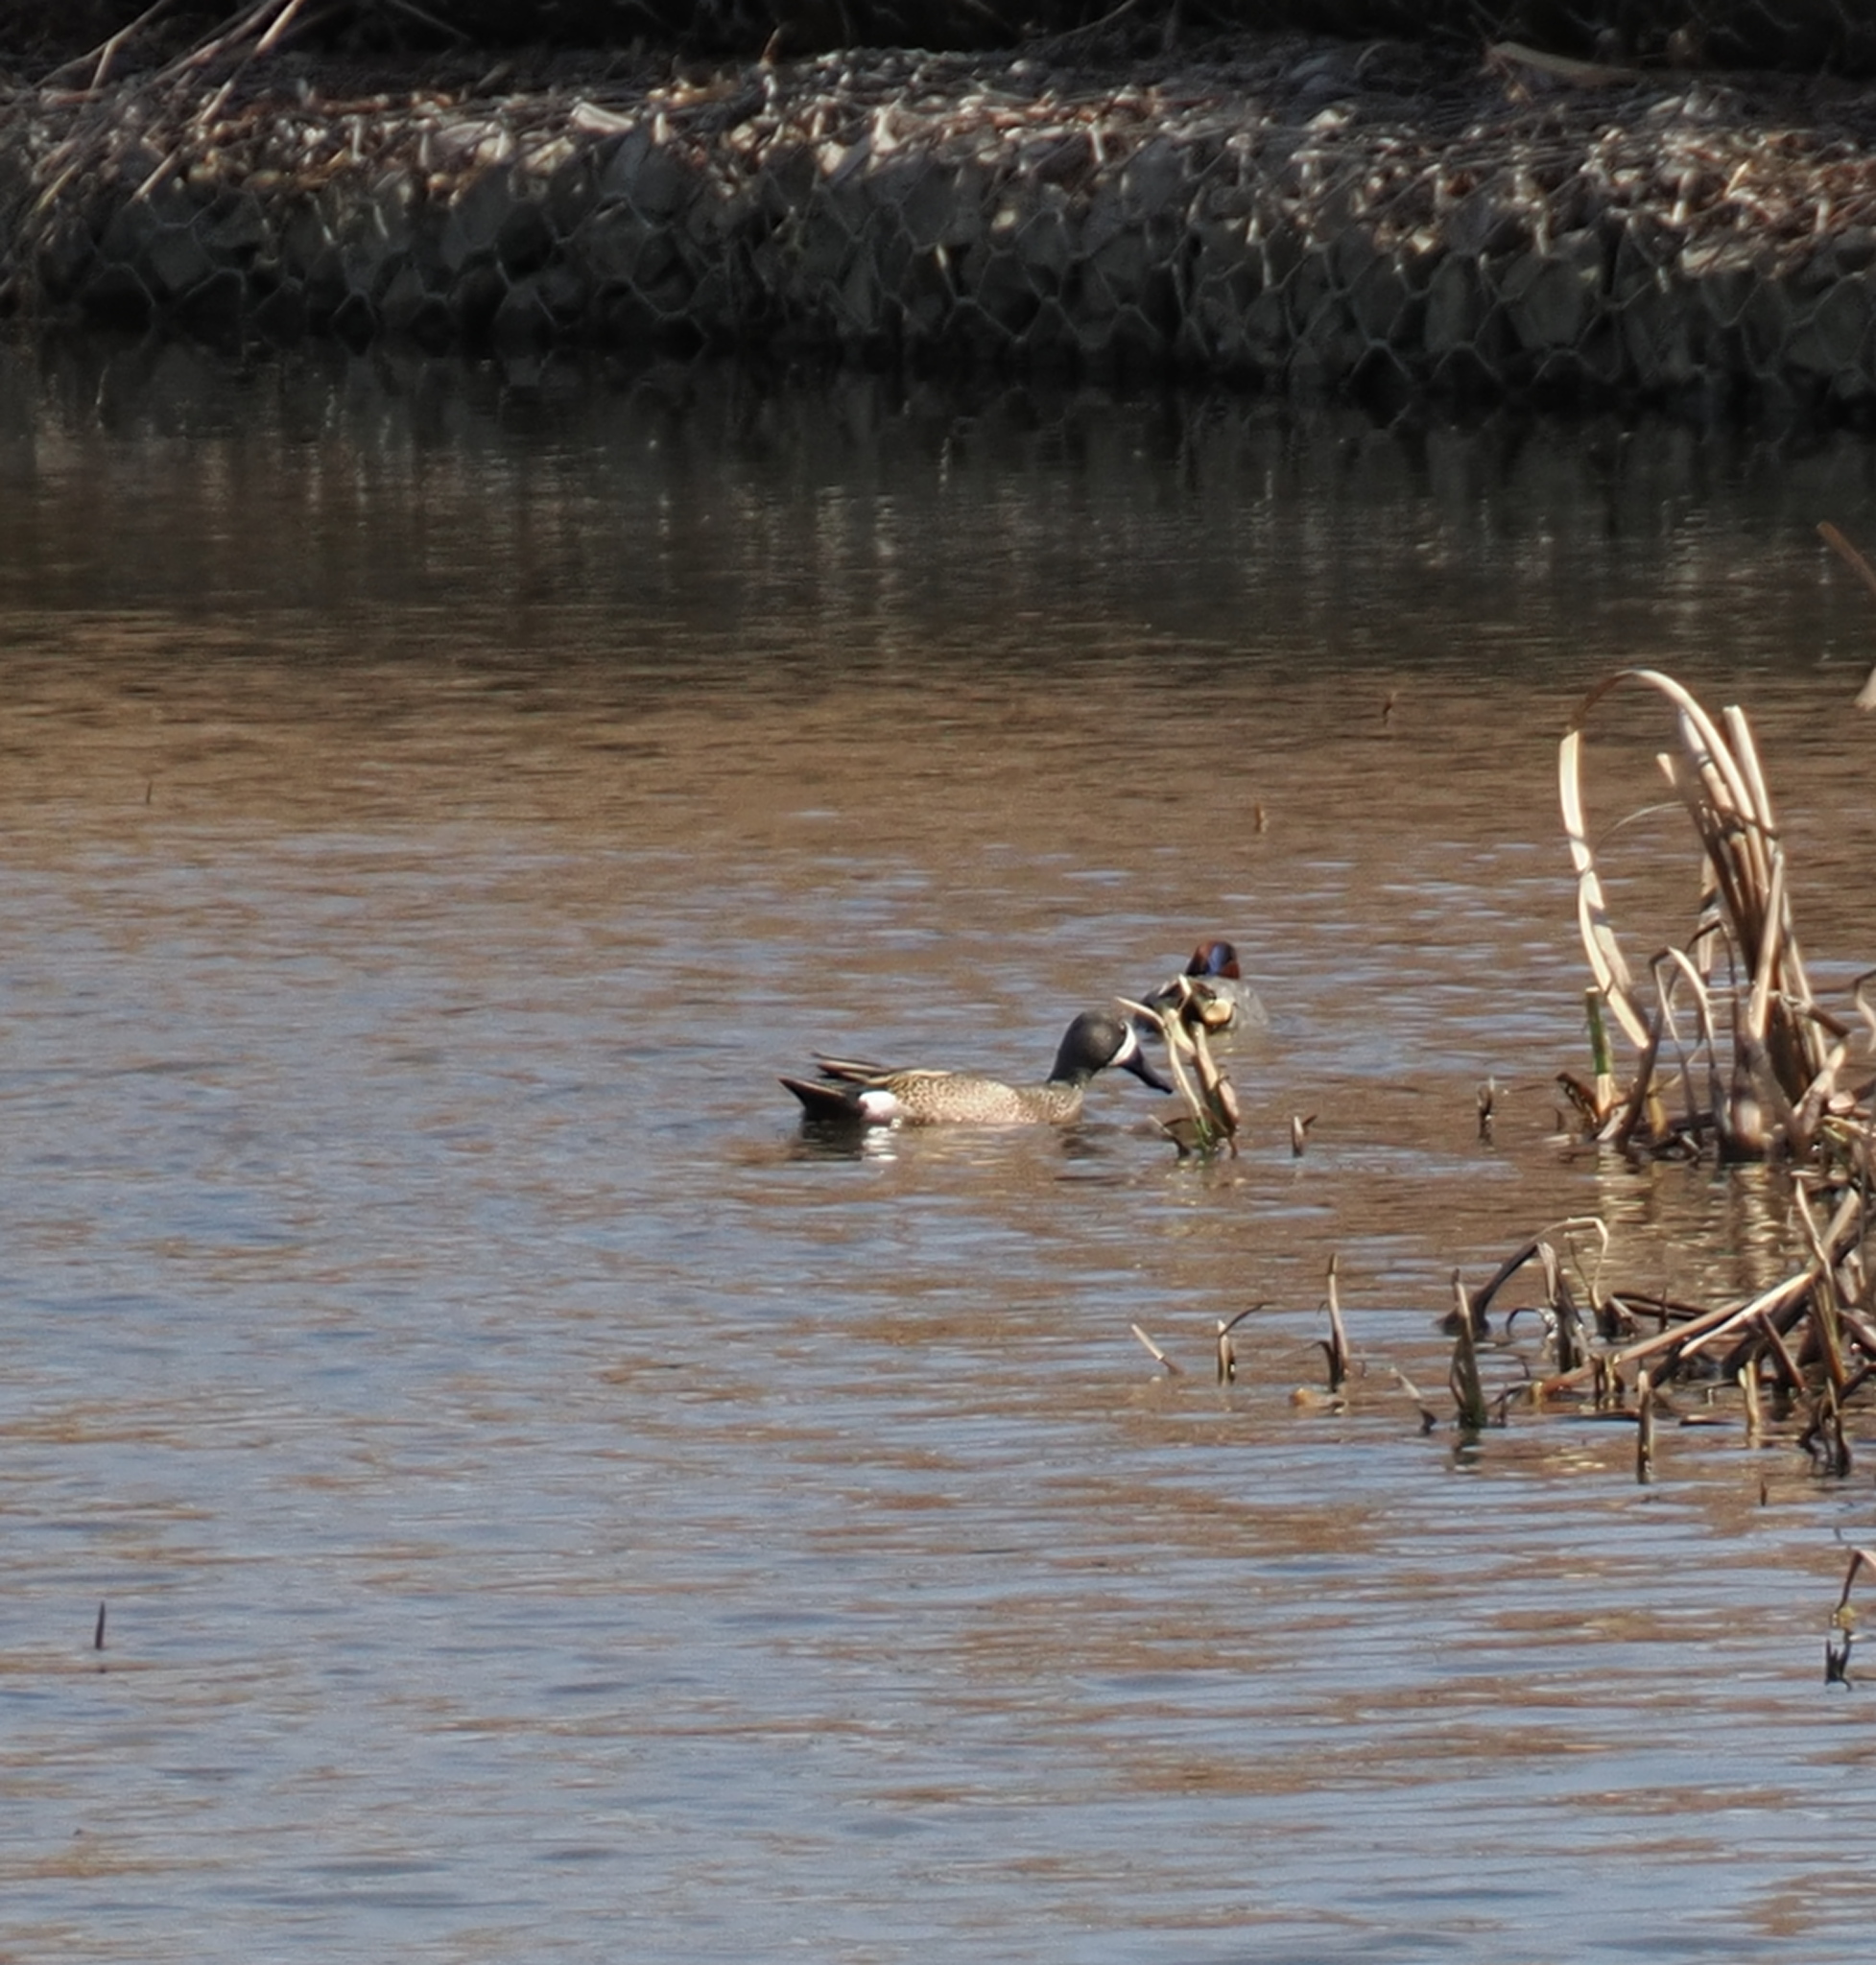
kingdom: Animalia
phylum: Chordata
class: Aves
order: Anseriformes
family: Anatidae
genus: Spatula
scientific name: Spatula discors
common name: Blue-winged teal
